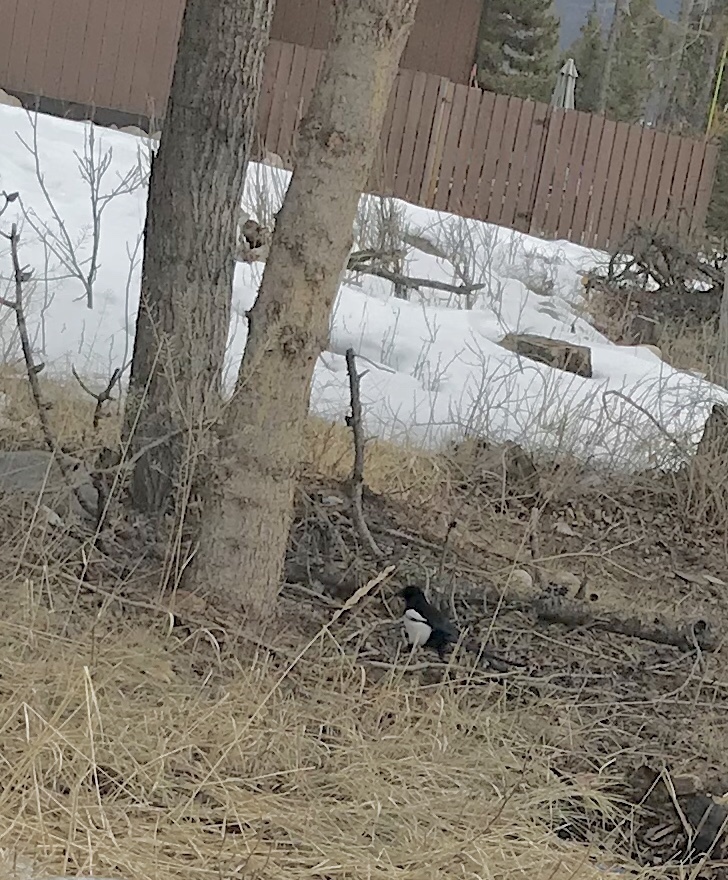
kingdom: Animalia
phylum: Chordata
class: Aves
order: Passeriformes
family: Corvidae
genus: Pica
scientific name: Pica hudsonia
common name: Black-billed magpie
